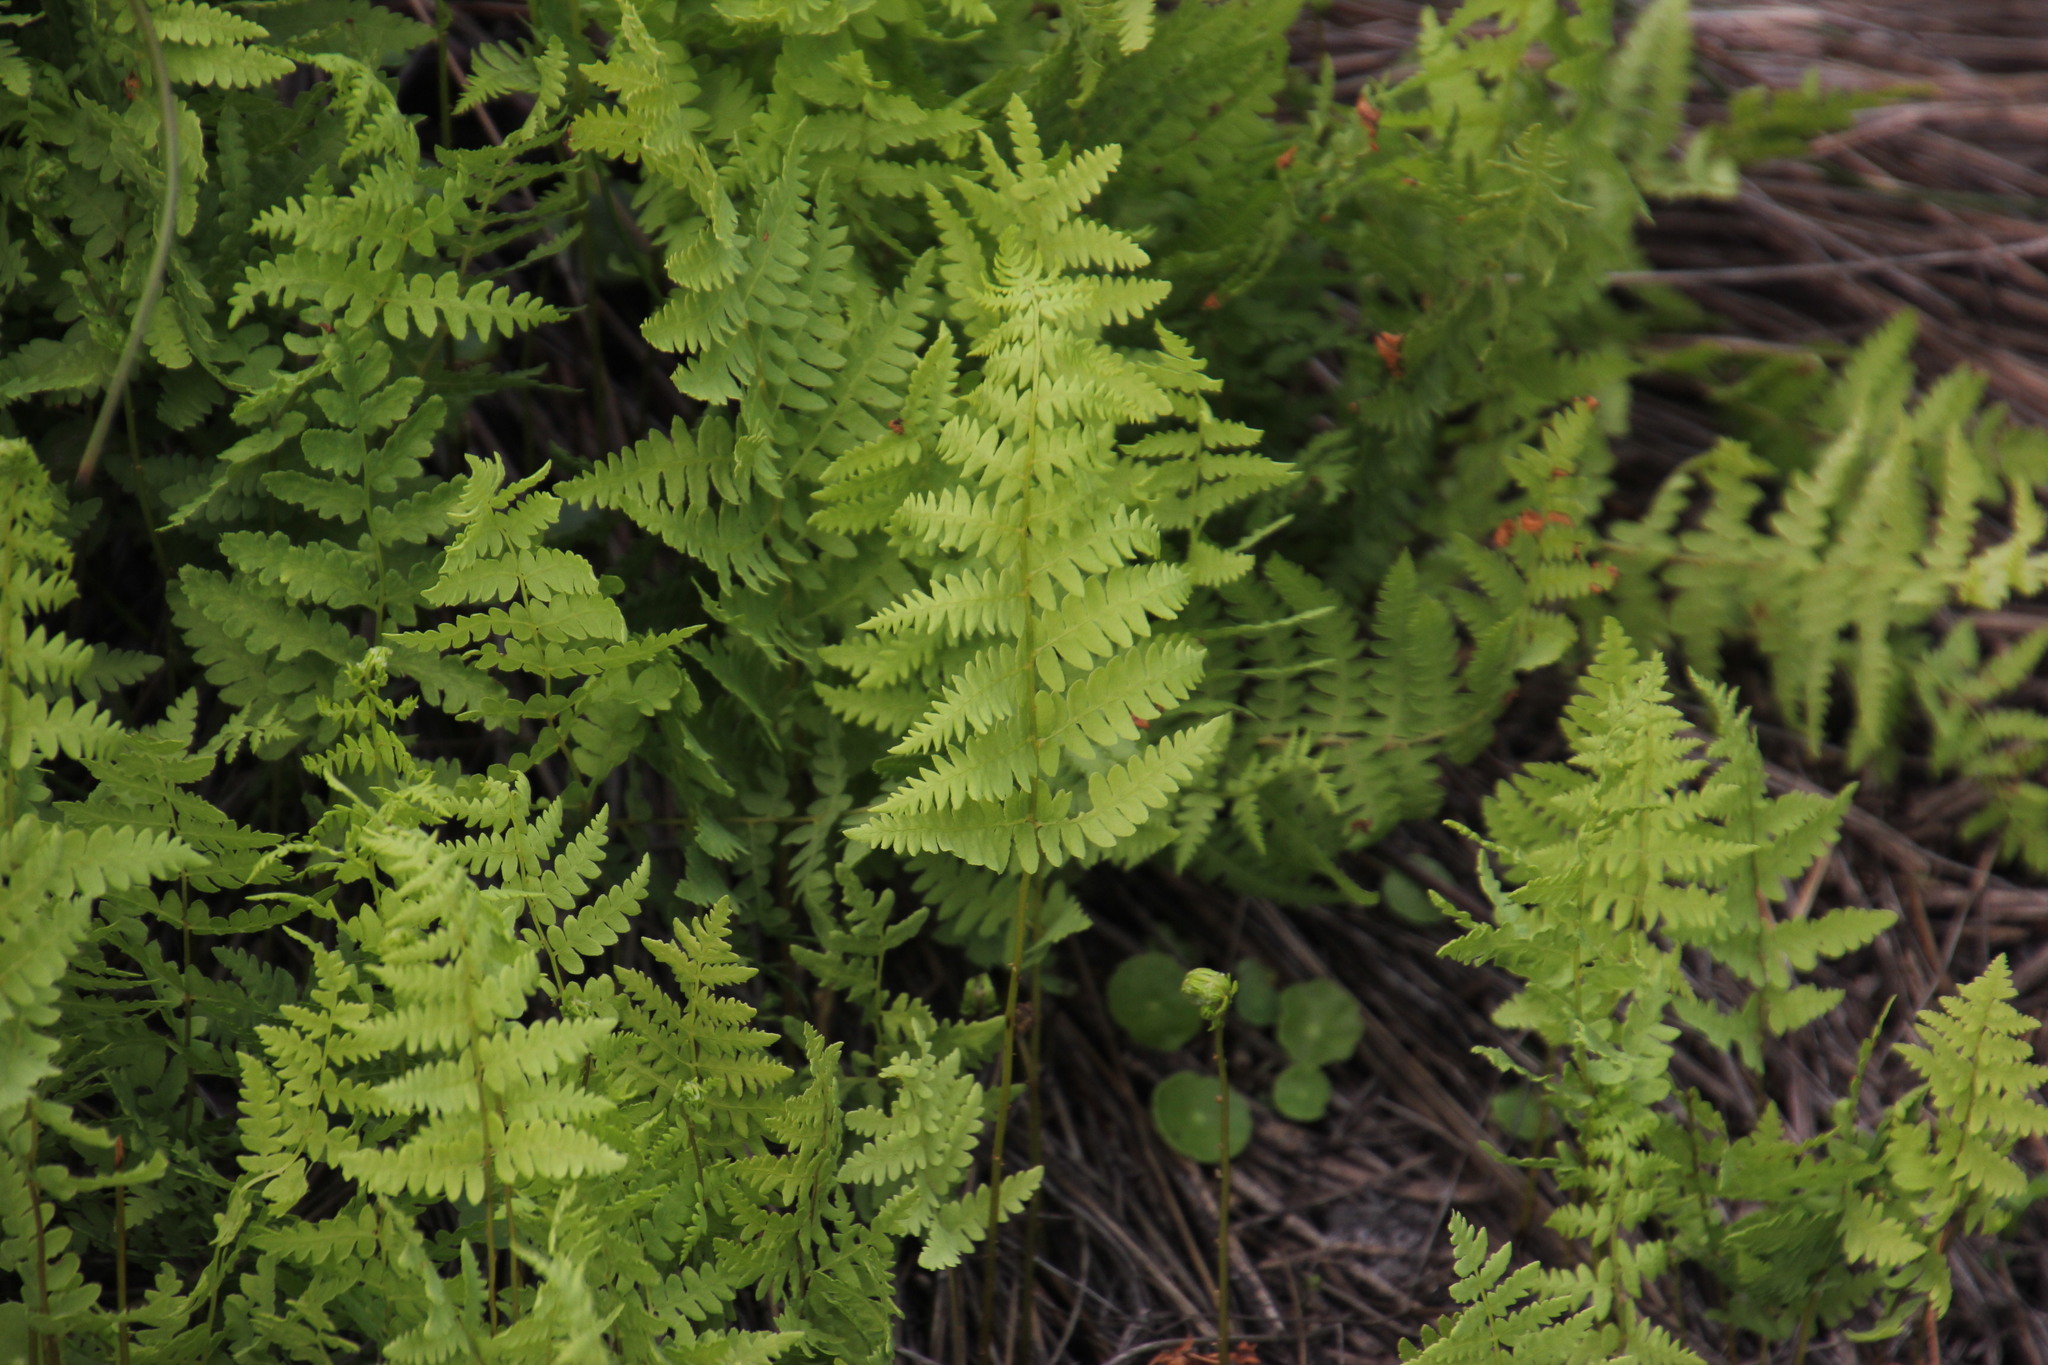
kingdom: Plantae
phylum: Tracheophyta
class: Polypodiopsida
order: Polypodiales
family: Thelypteridaceae
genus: Thelypteris
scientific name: Thelypteris confluens
